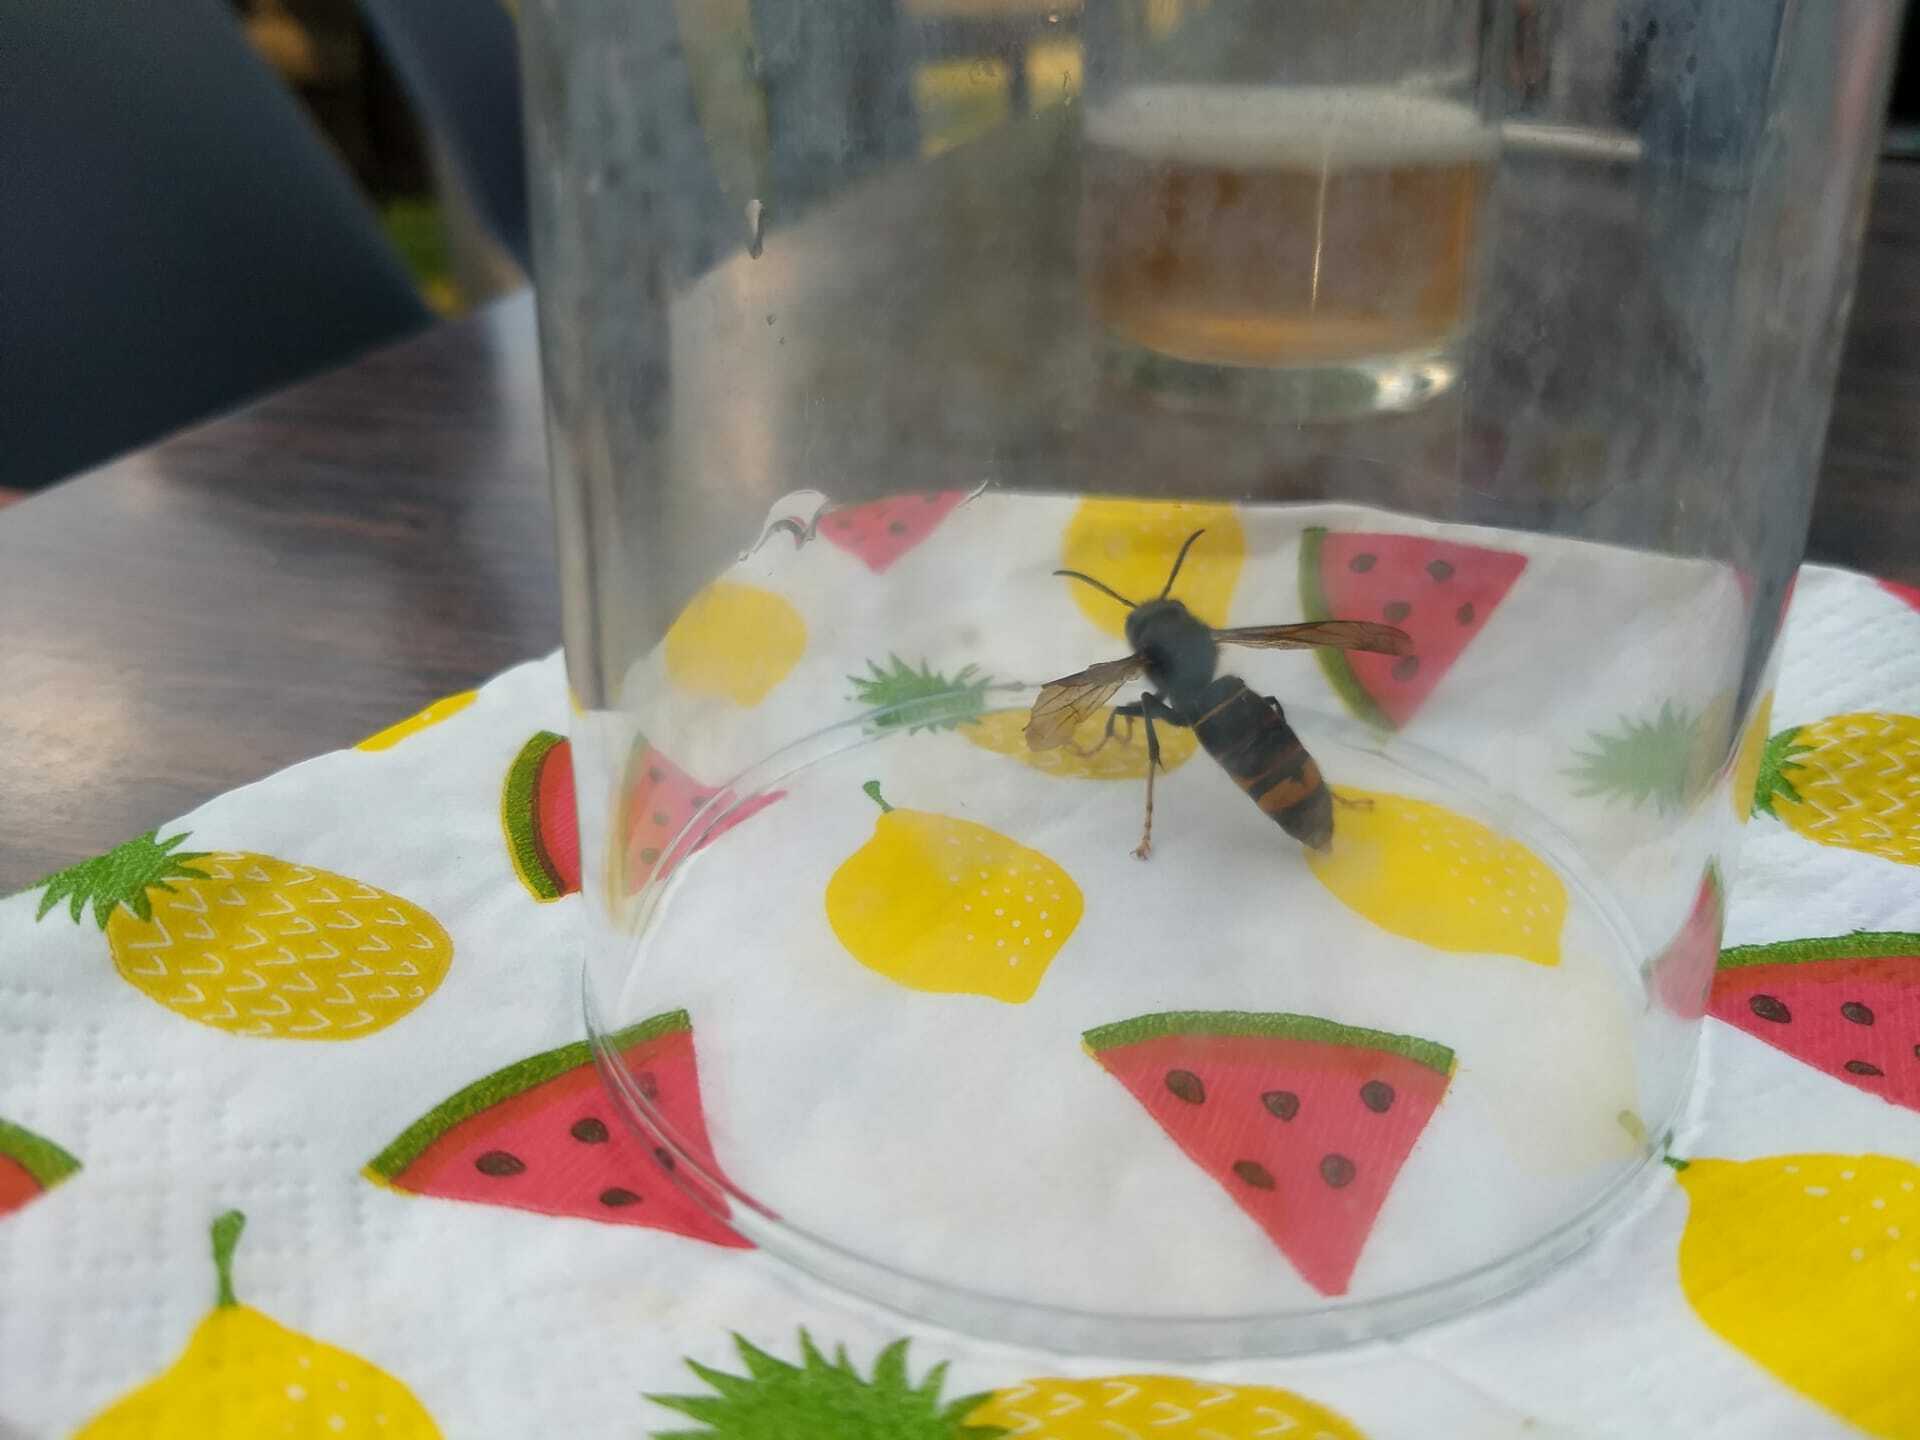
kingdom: Animalia
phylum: Arthropoda
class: Insecta
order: Hymenoptera
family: Vespidae
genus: Vespa
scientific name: Vespa velutina
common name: Asian hornet
